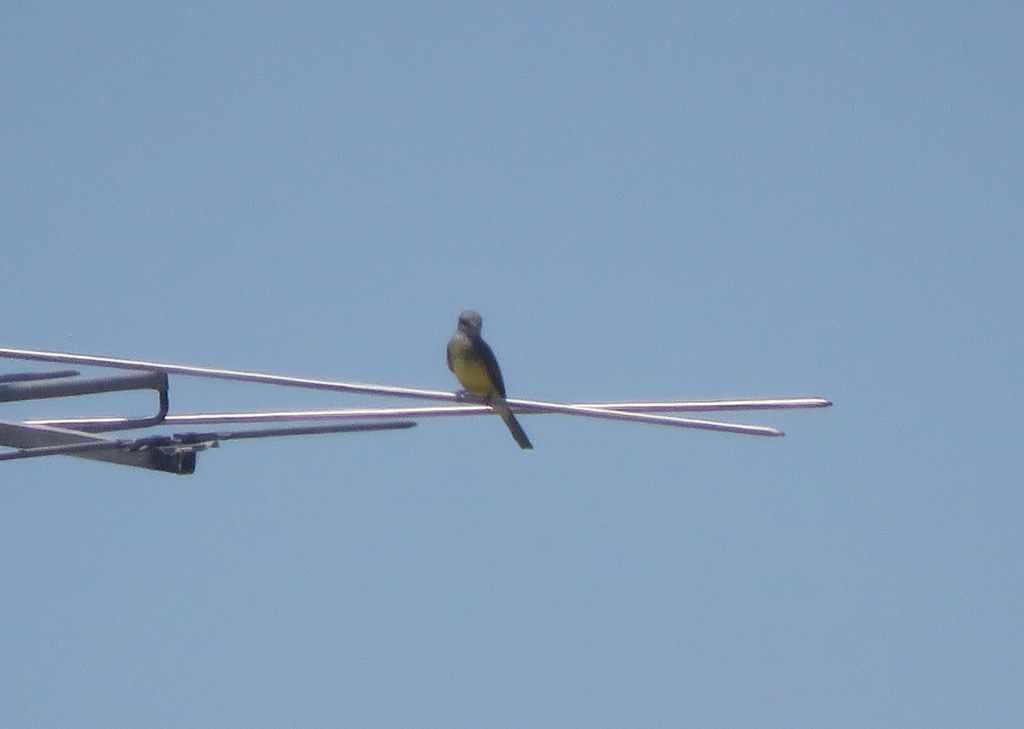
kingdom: Animalia
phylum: Chordata
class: Aves
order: Passeriformes
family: Tyrannidae
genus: Tyrannus
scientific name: Tyrannus melancholicus
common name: Tropical kingbird
